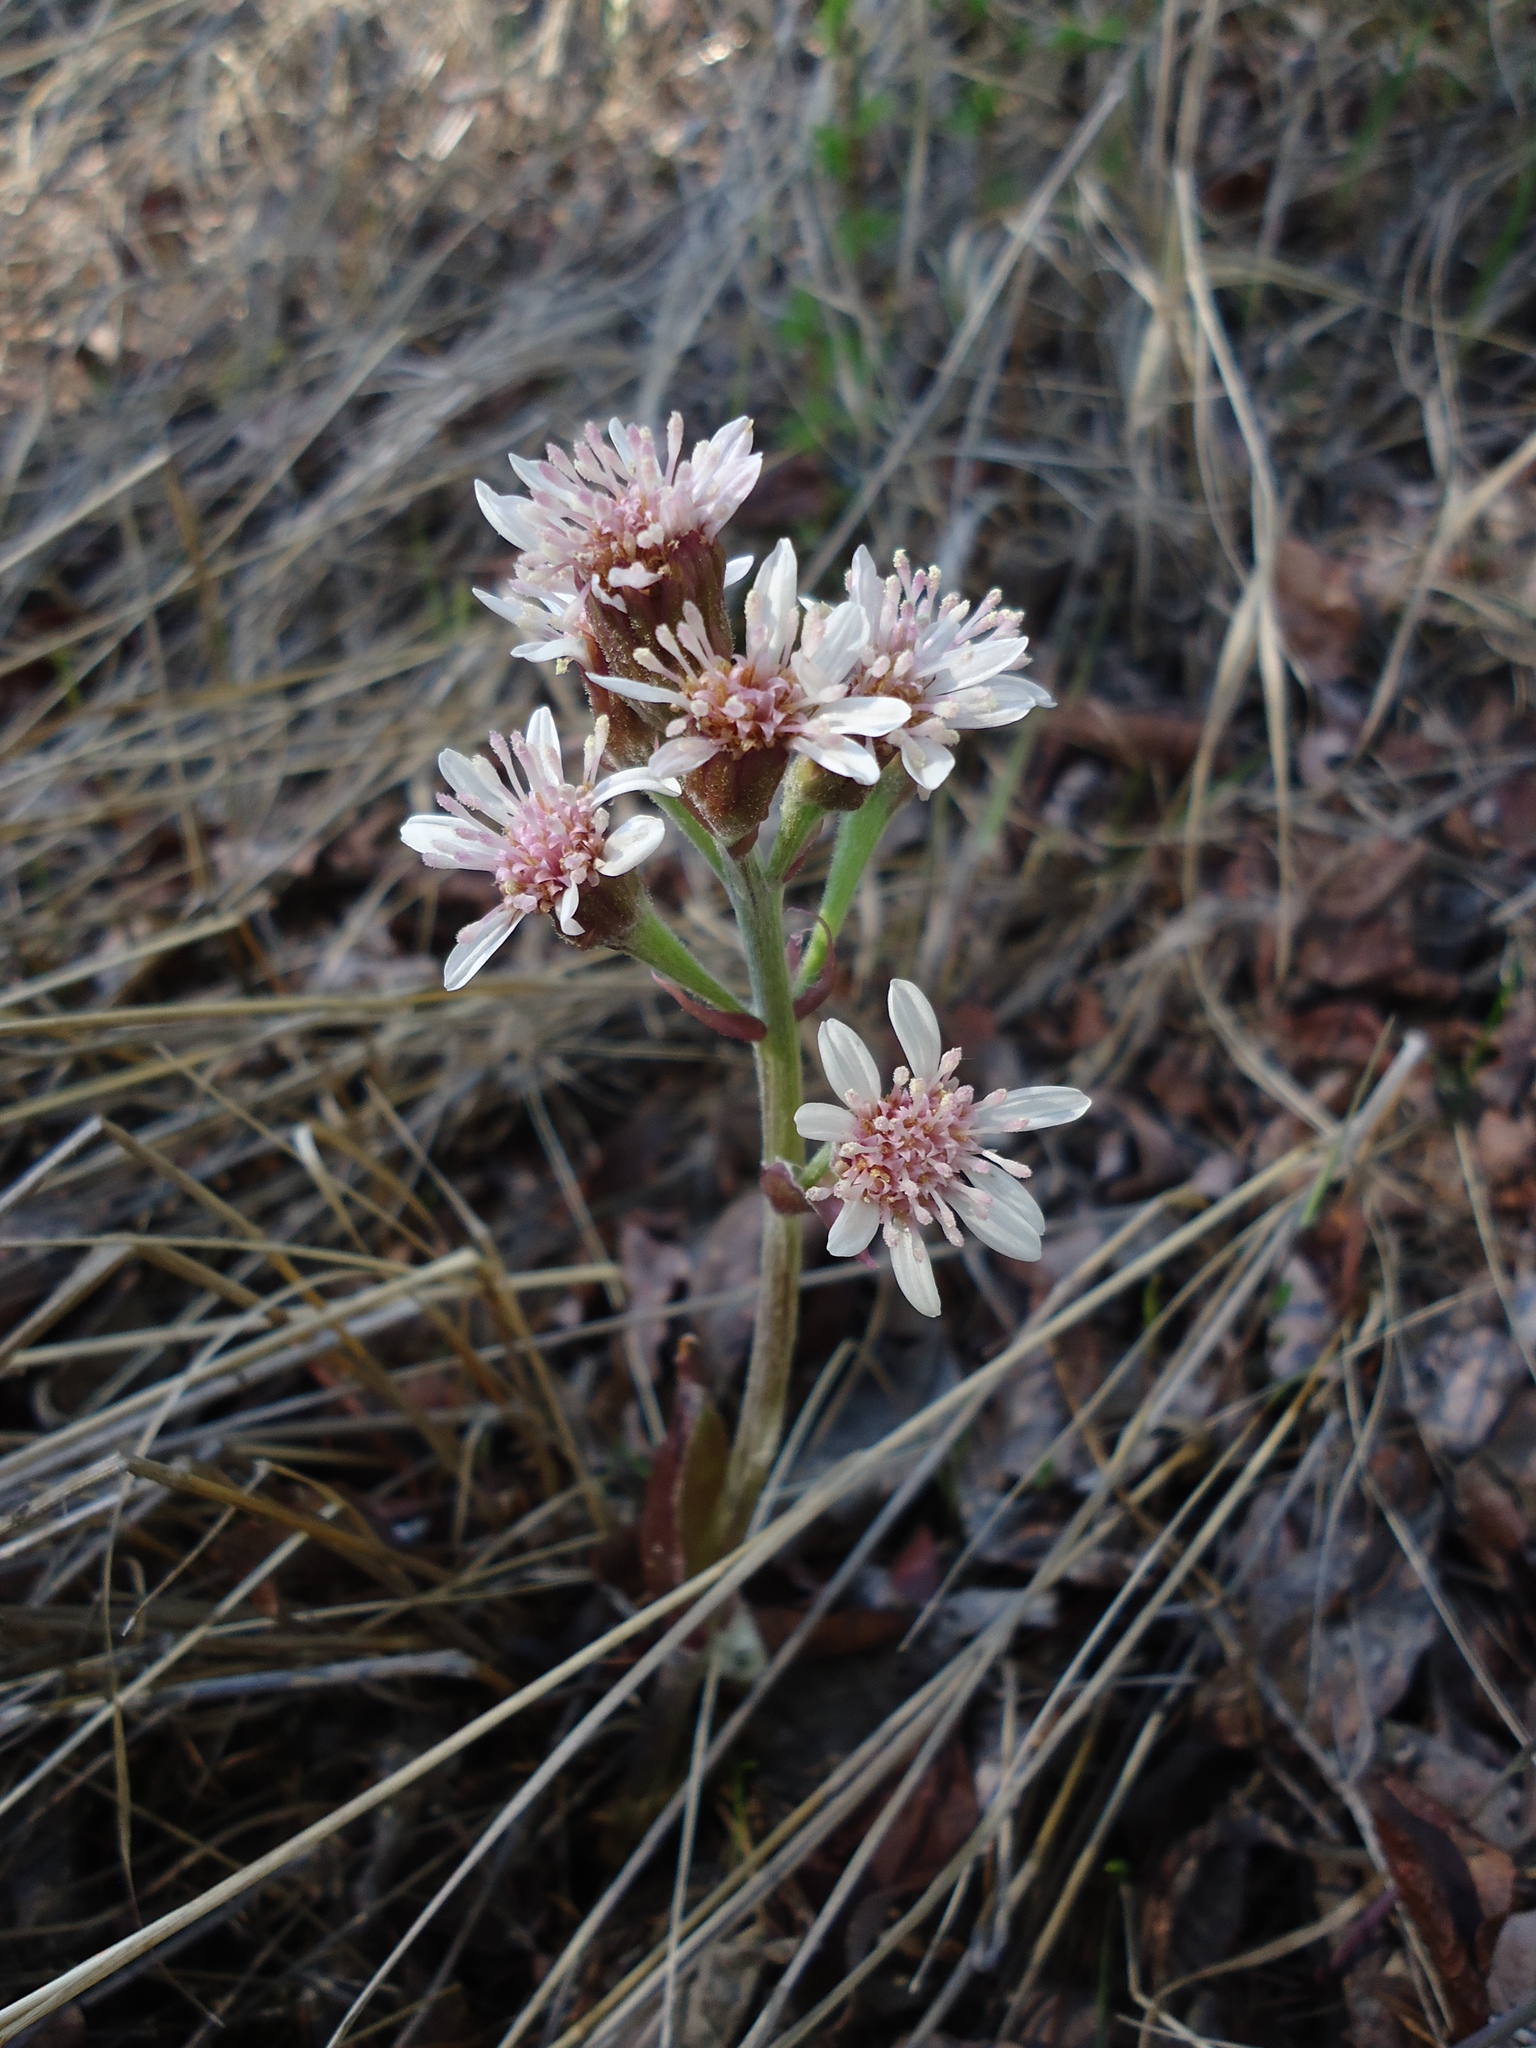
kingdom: Plantae
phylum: Tracheophyta
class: Magnoliopsida
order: Asterales
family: Asteraceae
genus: Petasites
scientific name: Petasites frigidus
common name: Arctic butterbur
